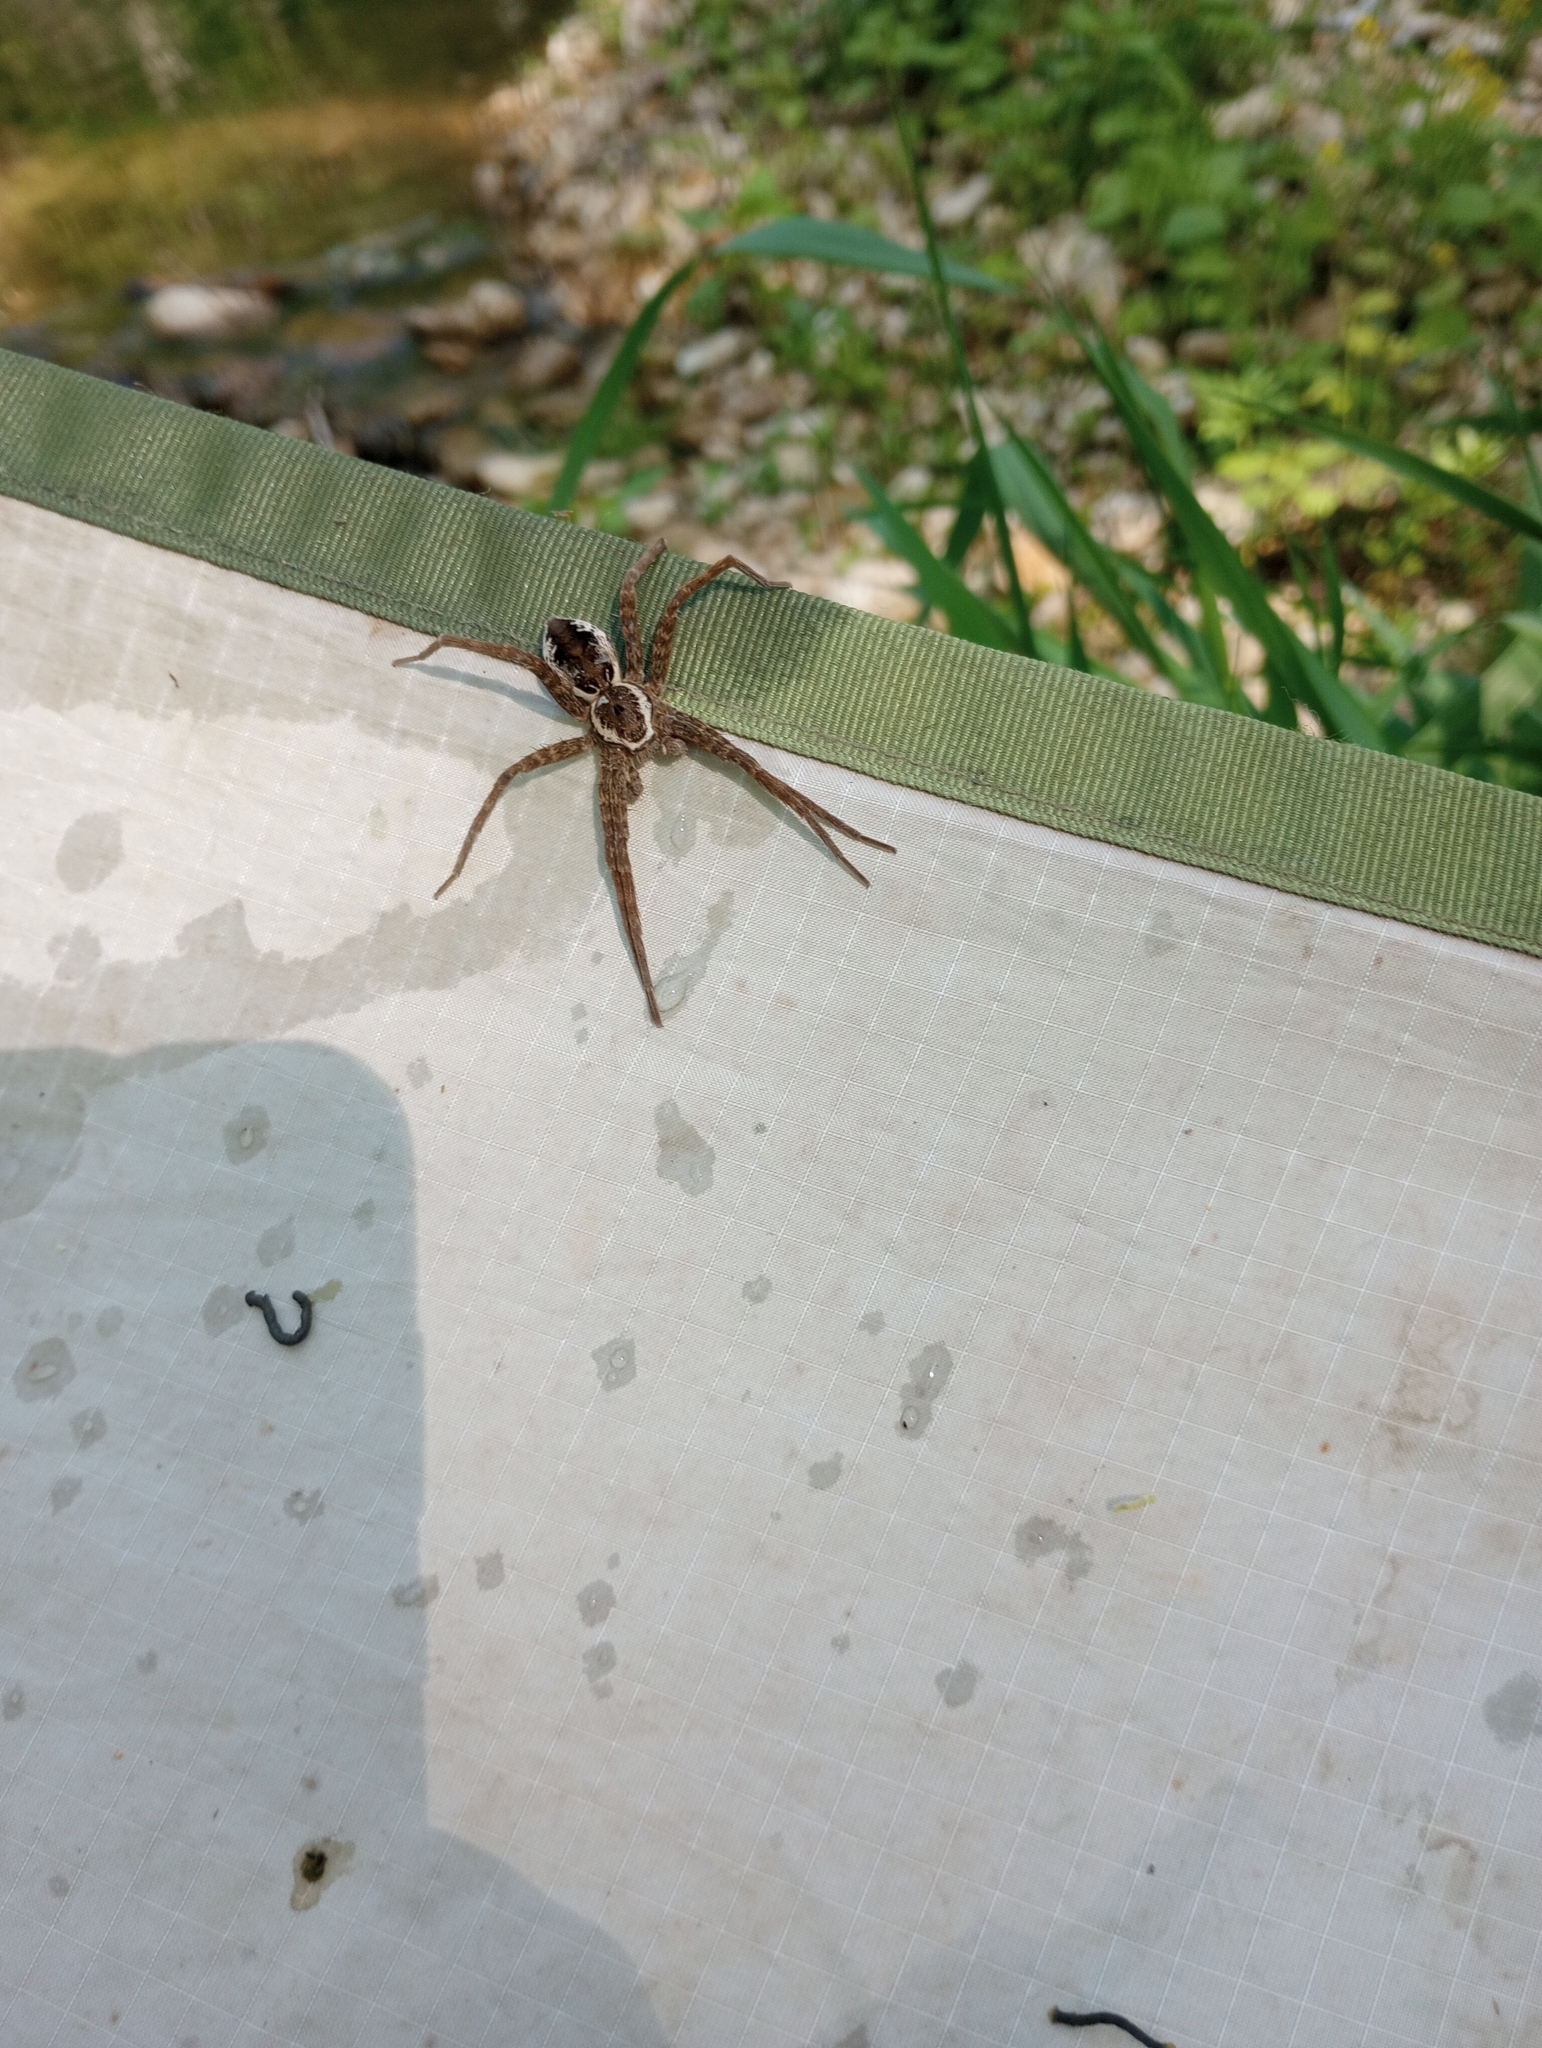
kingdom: Animalia
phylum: Arthropoda
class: Arachnida
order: Araneae
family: Pisauridae
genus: Dolomedes
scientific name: Dolomedes vittatus
